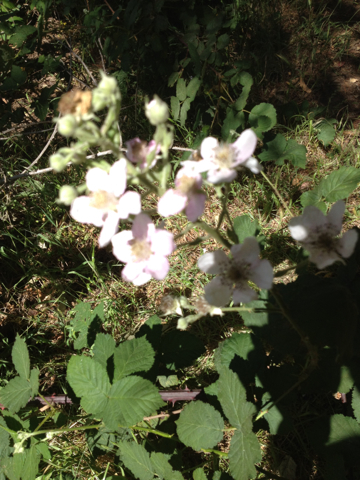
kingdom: Plantae
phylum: Tracheophyta
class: Magnoliopsida
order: Rosales
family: Rosaceae
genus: Rubus
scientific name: Rubus armeniacus
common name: Himalayan blackberry
